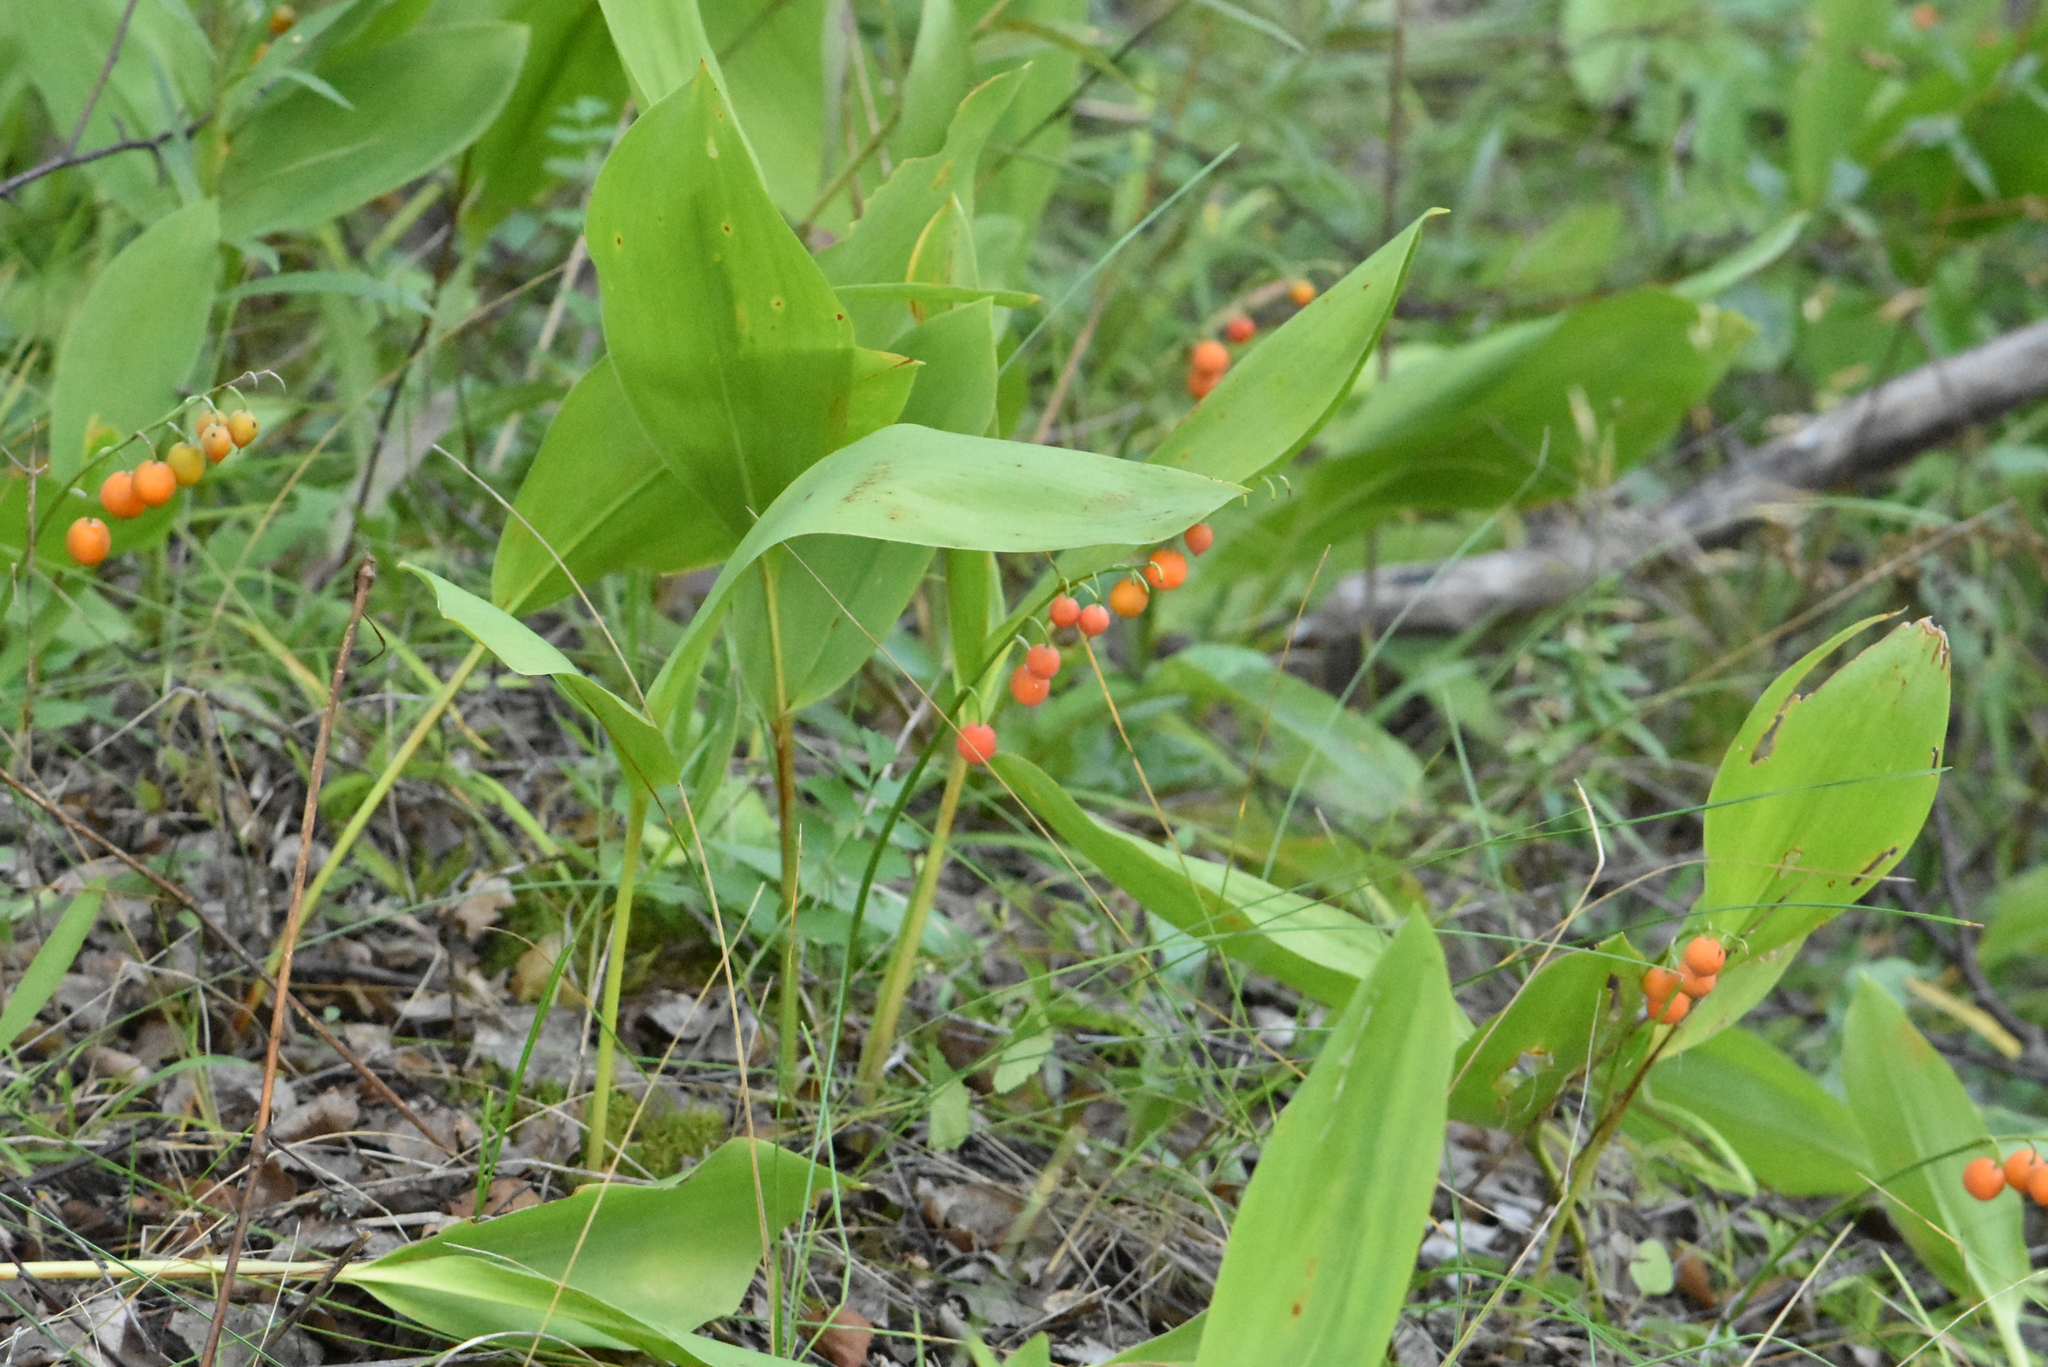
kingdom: Plantae
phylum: Tracheophyta
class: Liliopsida
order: Asparagales
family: Asparagaceae
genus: Convallaria
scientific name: Convallaria majalis
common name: Lily-of-the-valley
